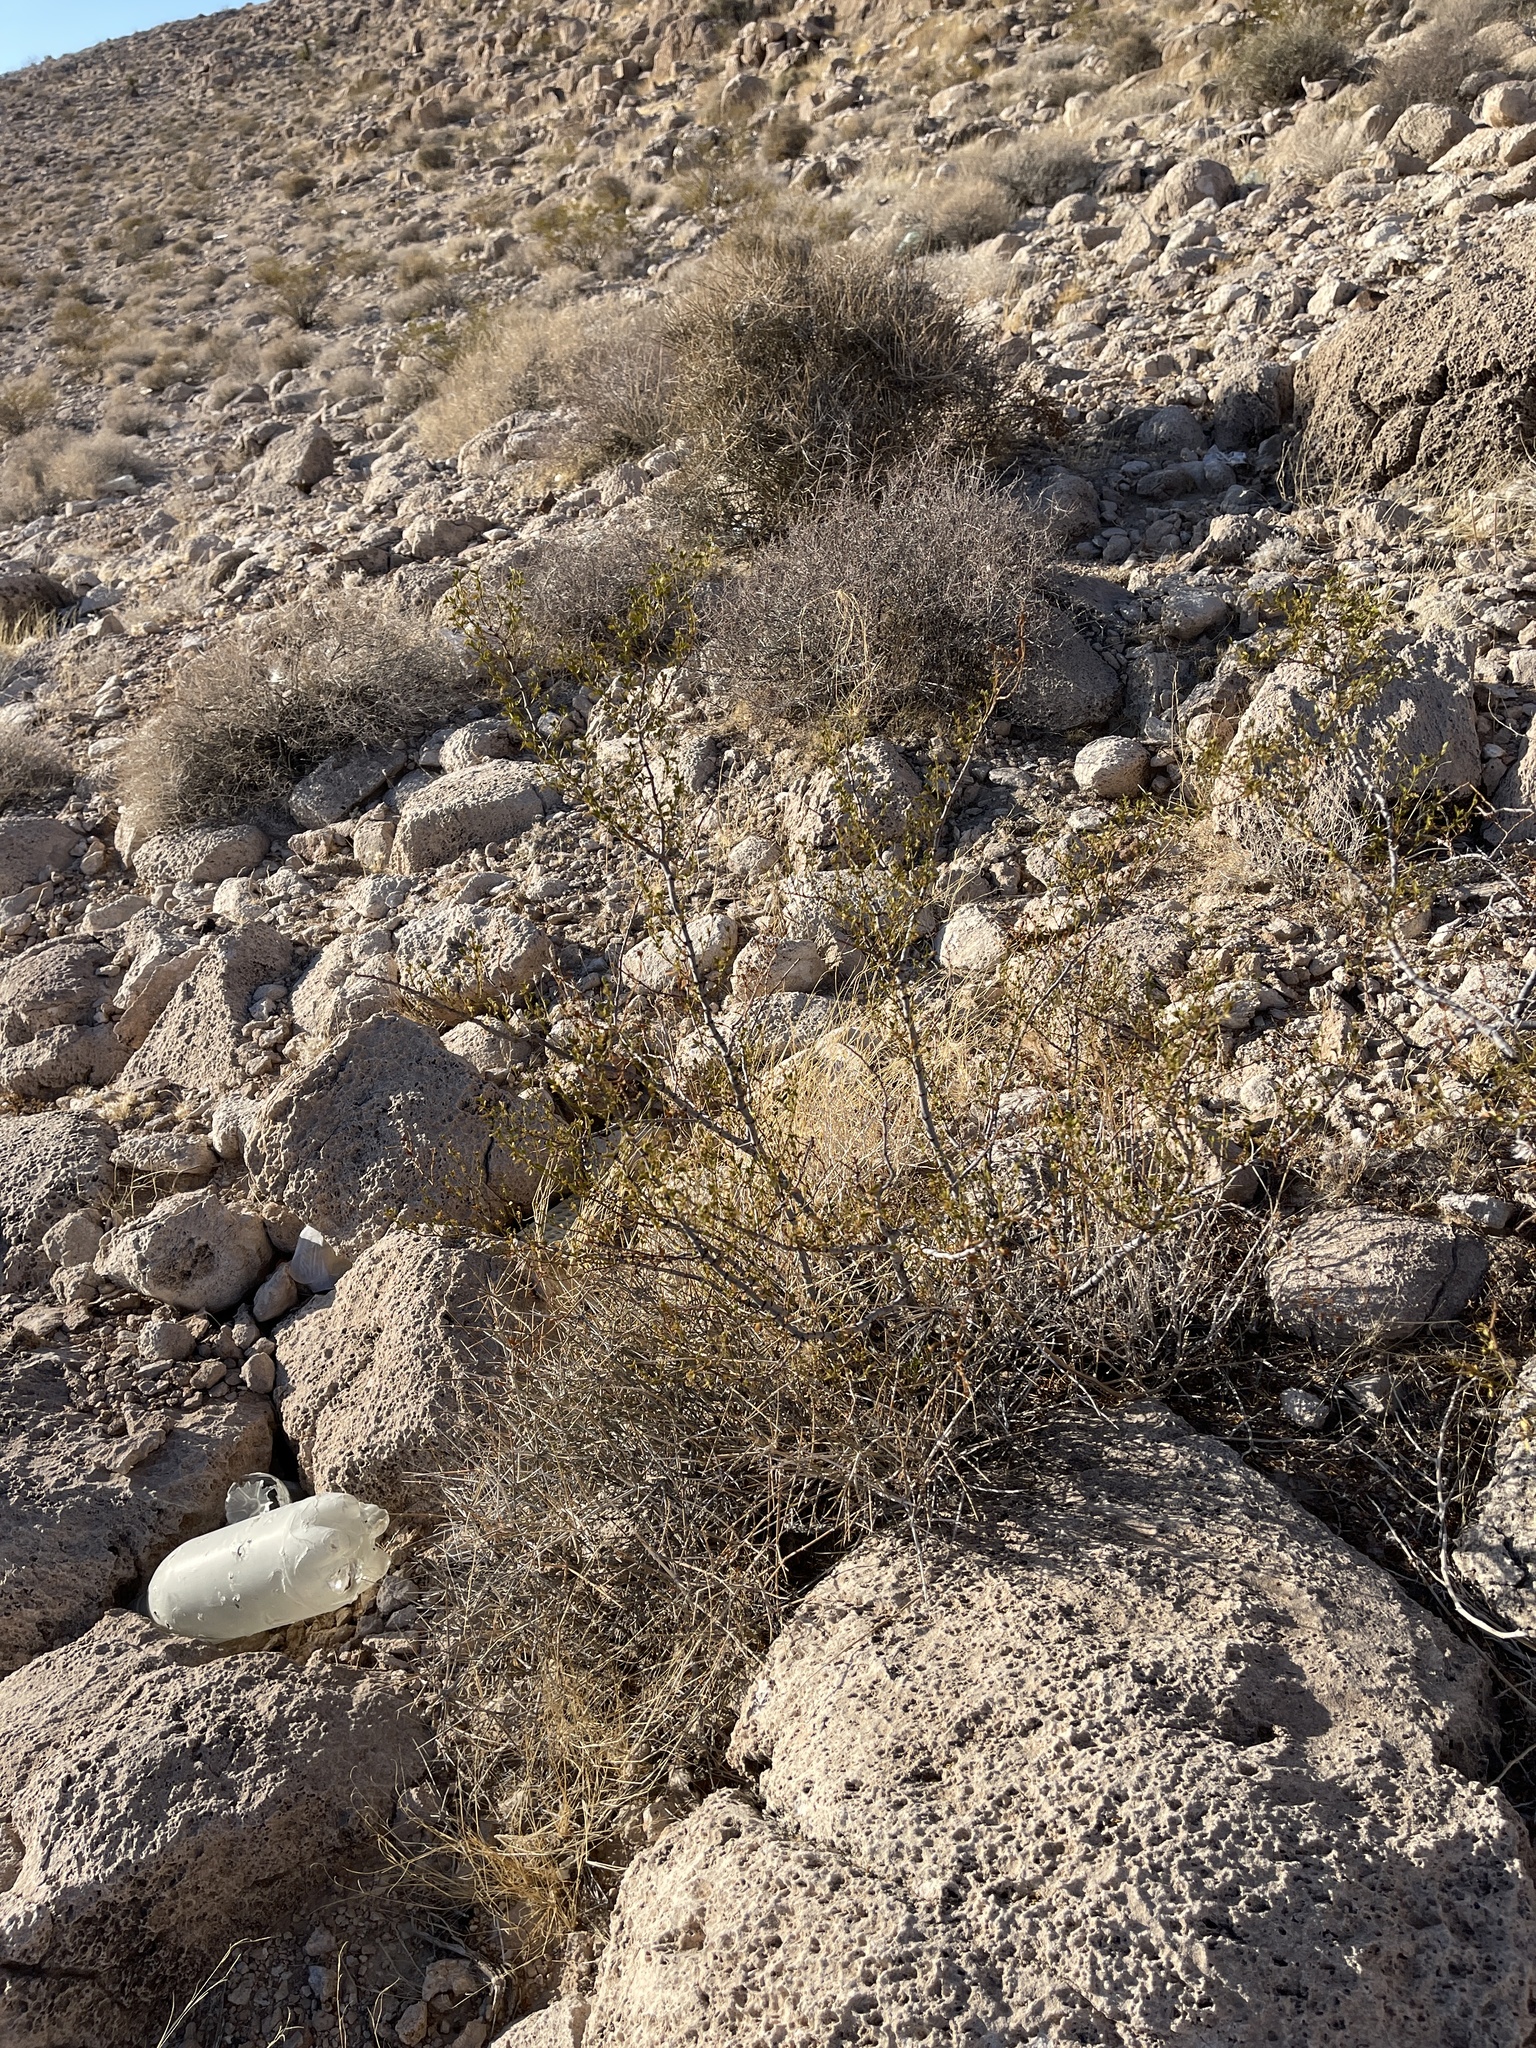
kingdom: Plantae
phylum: Tracheophyta
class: Magnoliopsida
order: Zygophyllales
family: Zygophyllaceae
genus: Larrea
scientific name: Larrea tridentata
